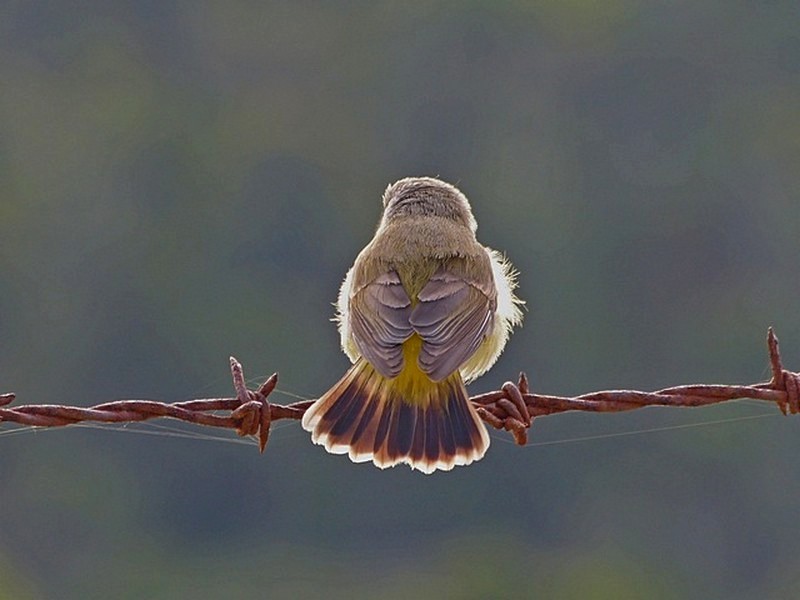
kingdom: Animalia
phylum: Chordata
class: Aves
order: Passeriformes
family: Acanthizidae
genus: Acanthiza
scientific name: Acanthiza chrysorrhoa
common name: Yellow-rumped thornbill
